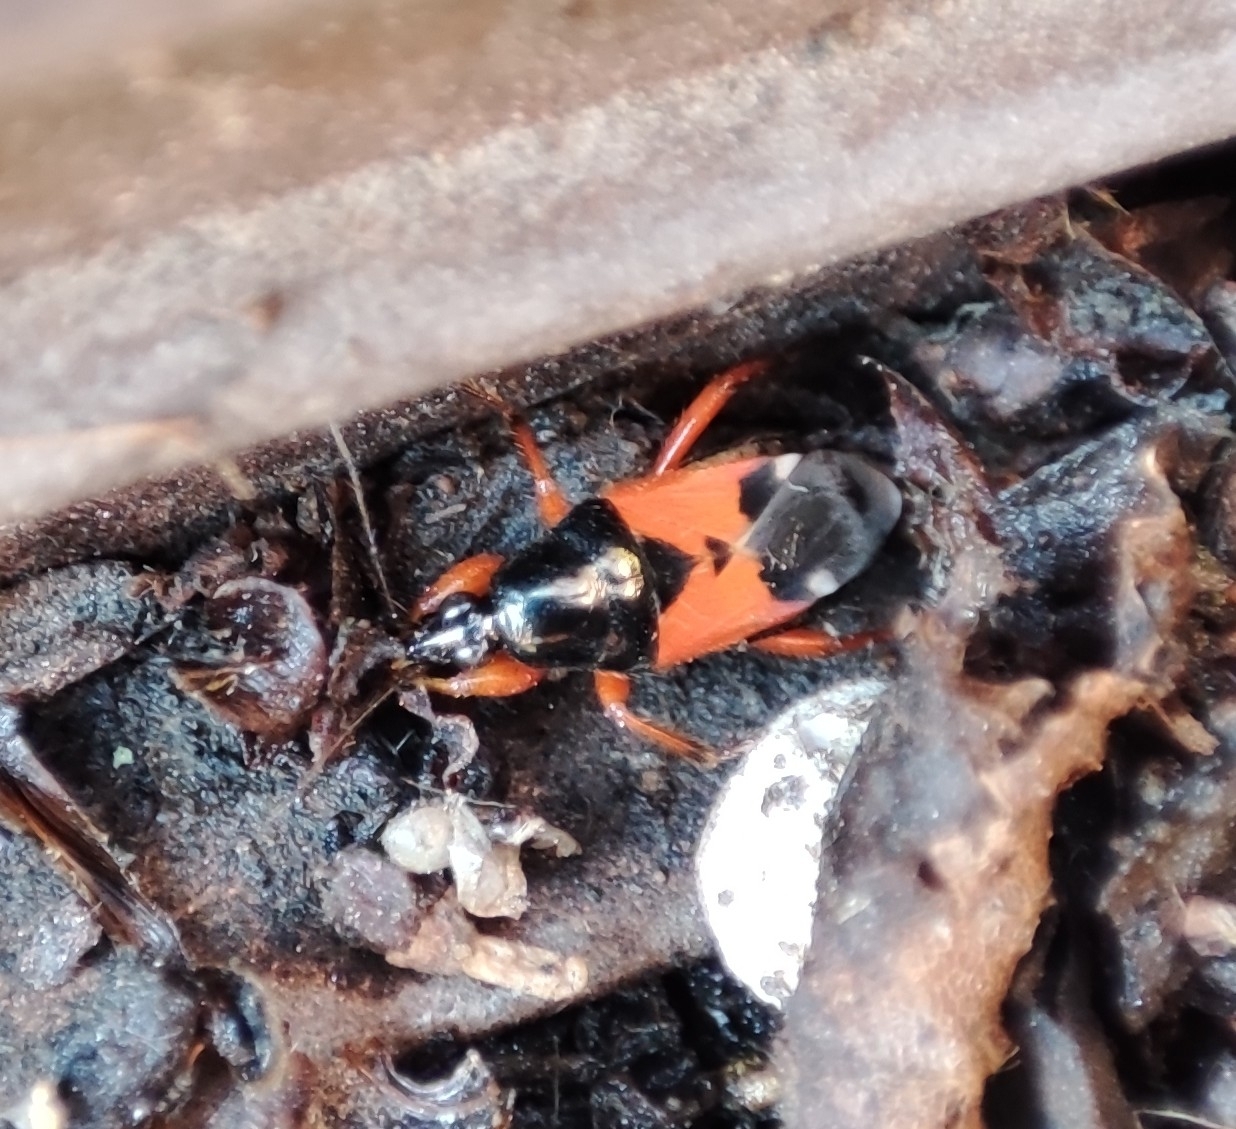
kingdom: Animalia
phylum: Arthropoda
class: Insecta
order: Hemiptera
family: Nabidae
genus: Prostemma
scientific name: Prostemma guttula
